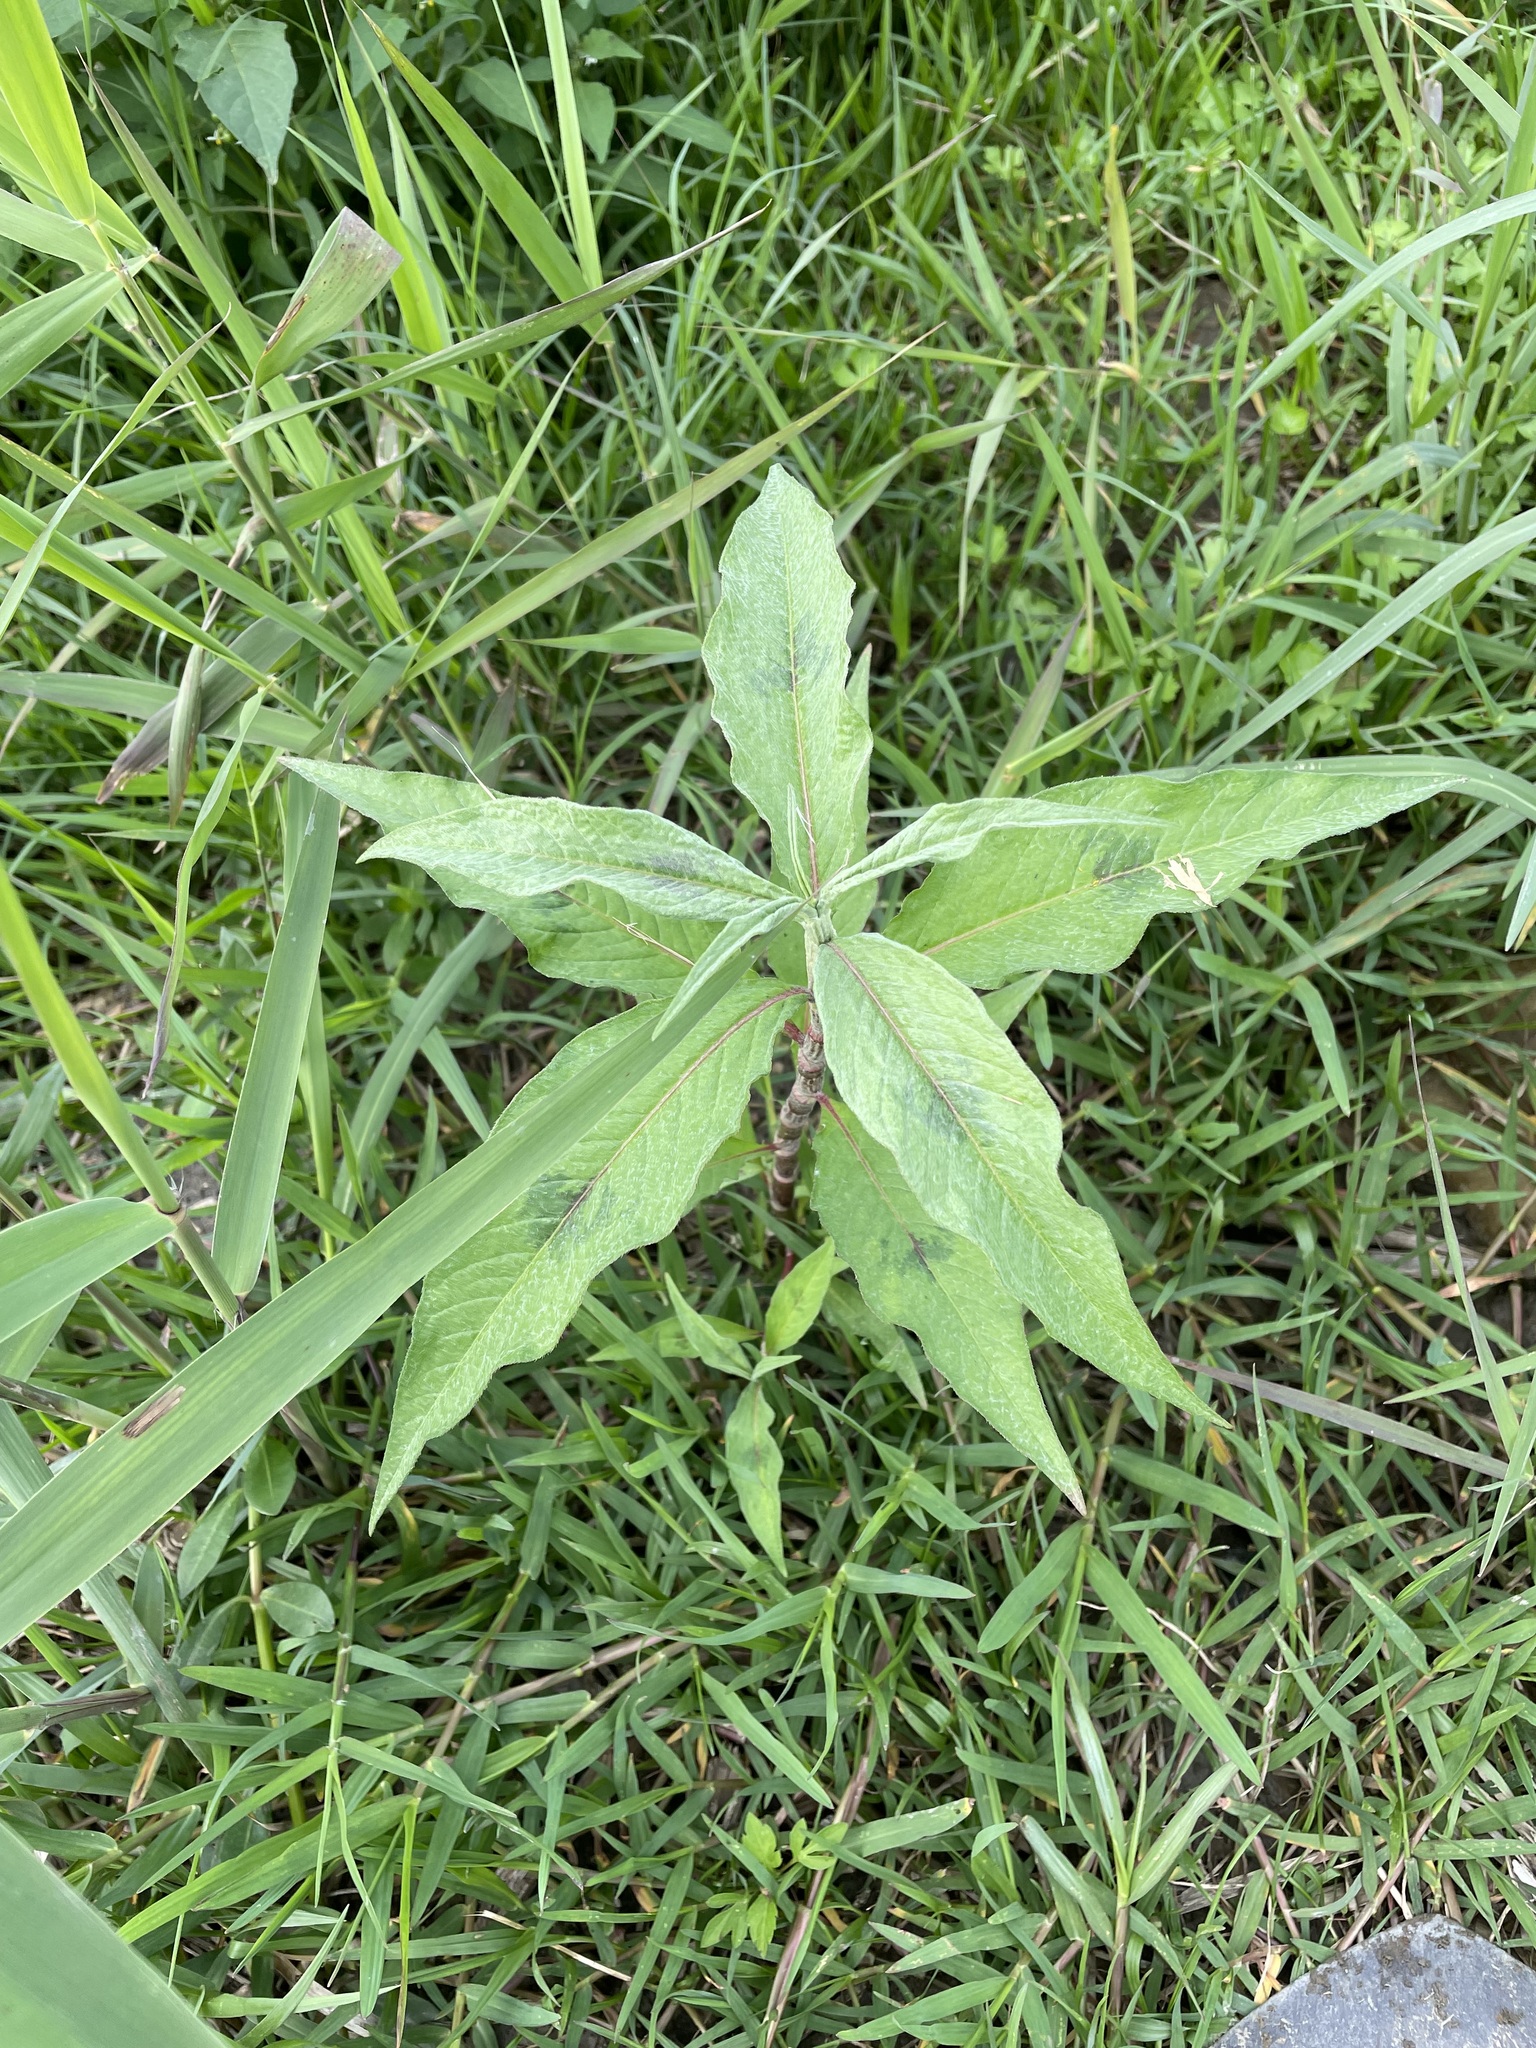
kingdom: Plantae
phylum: Tracheophyta
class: Magnoliopsida
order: Caryophyllales
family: Polygonaceae
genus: Persicaria
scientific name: Persicaria lanata
